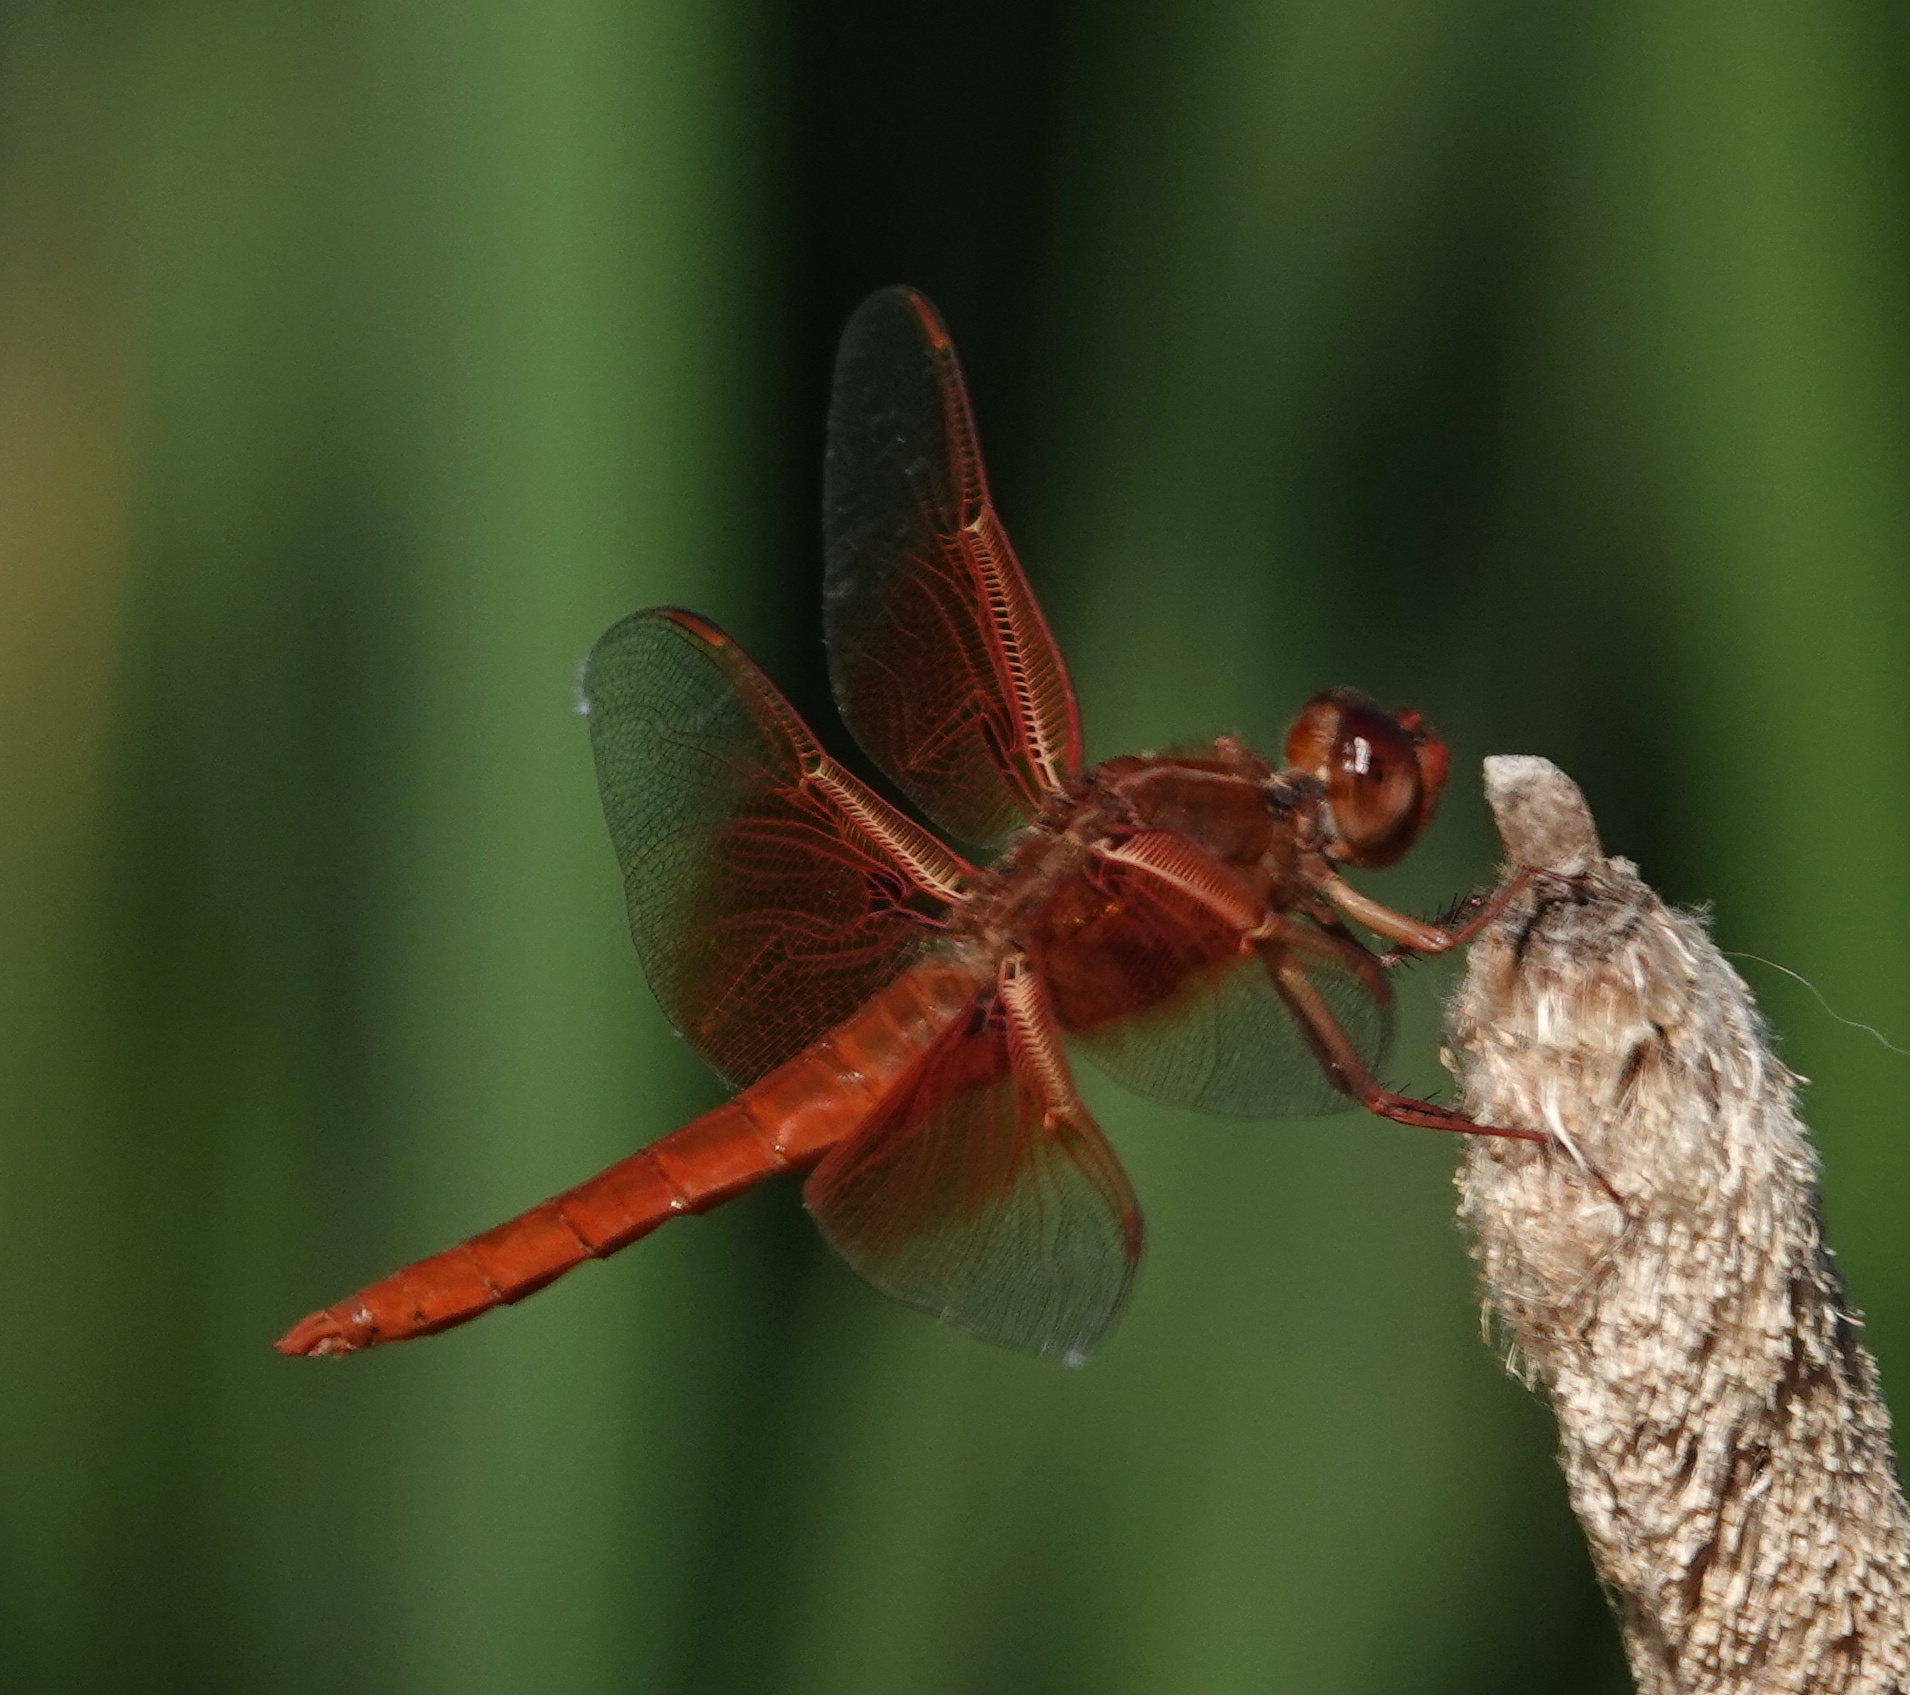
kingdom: Animalia
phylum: Arthropoda
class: Insecta
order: Odonata
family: Libellulidae
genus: Libellula
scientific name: Libellula saturata
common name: Flame skimmer
